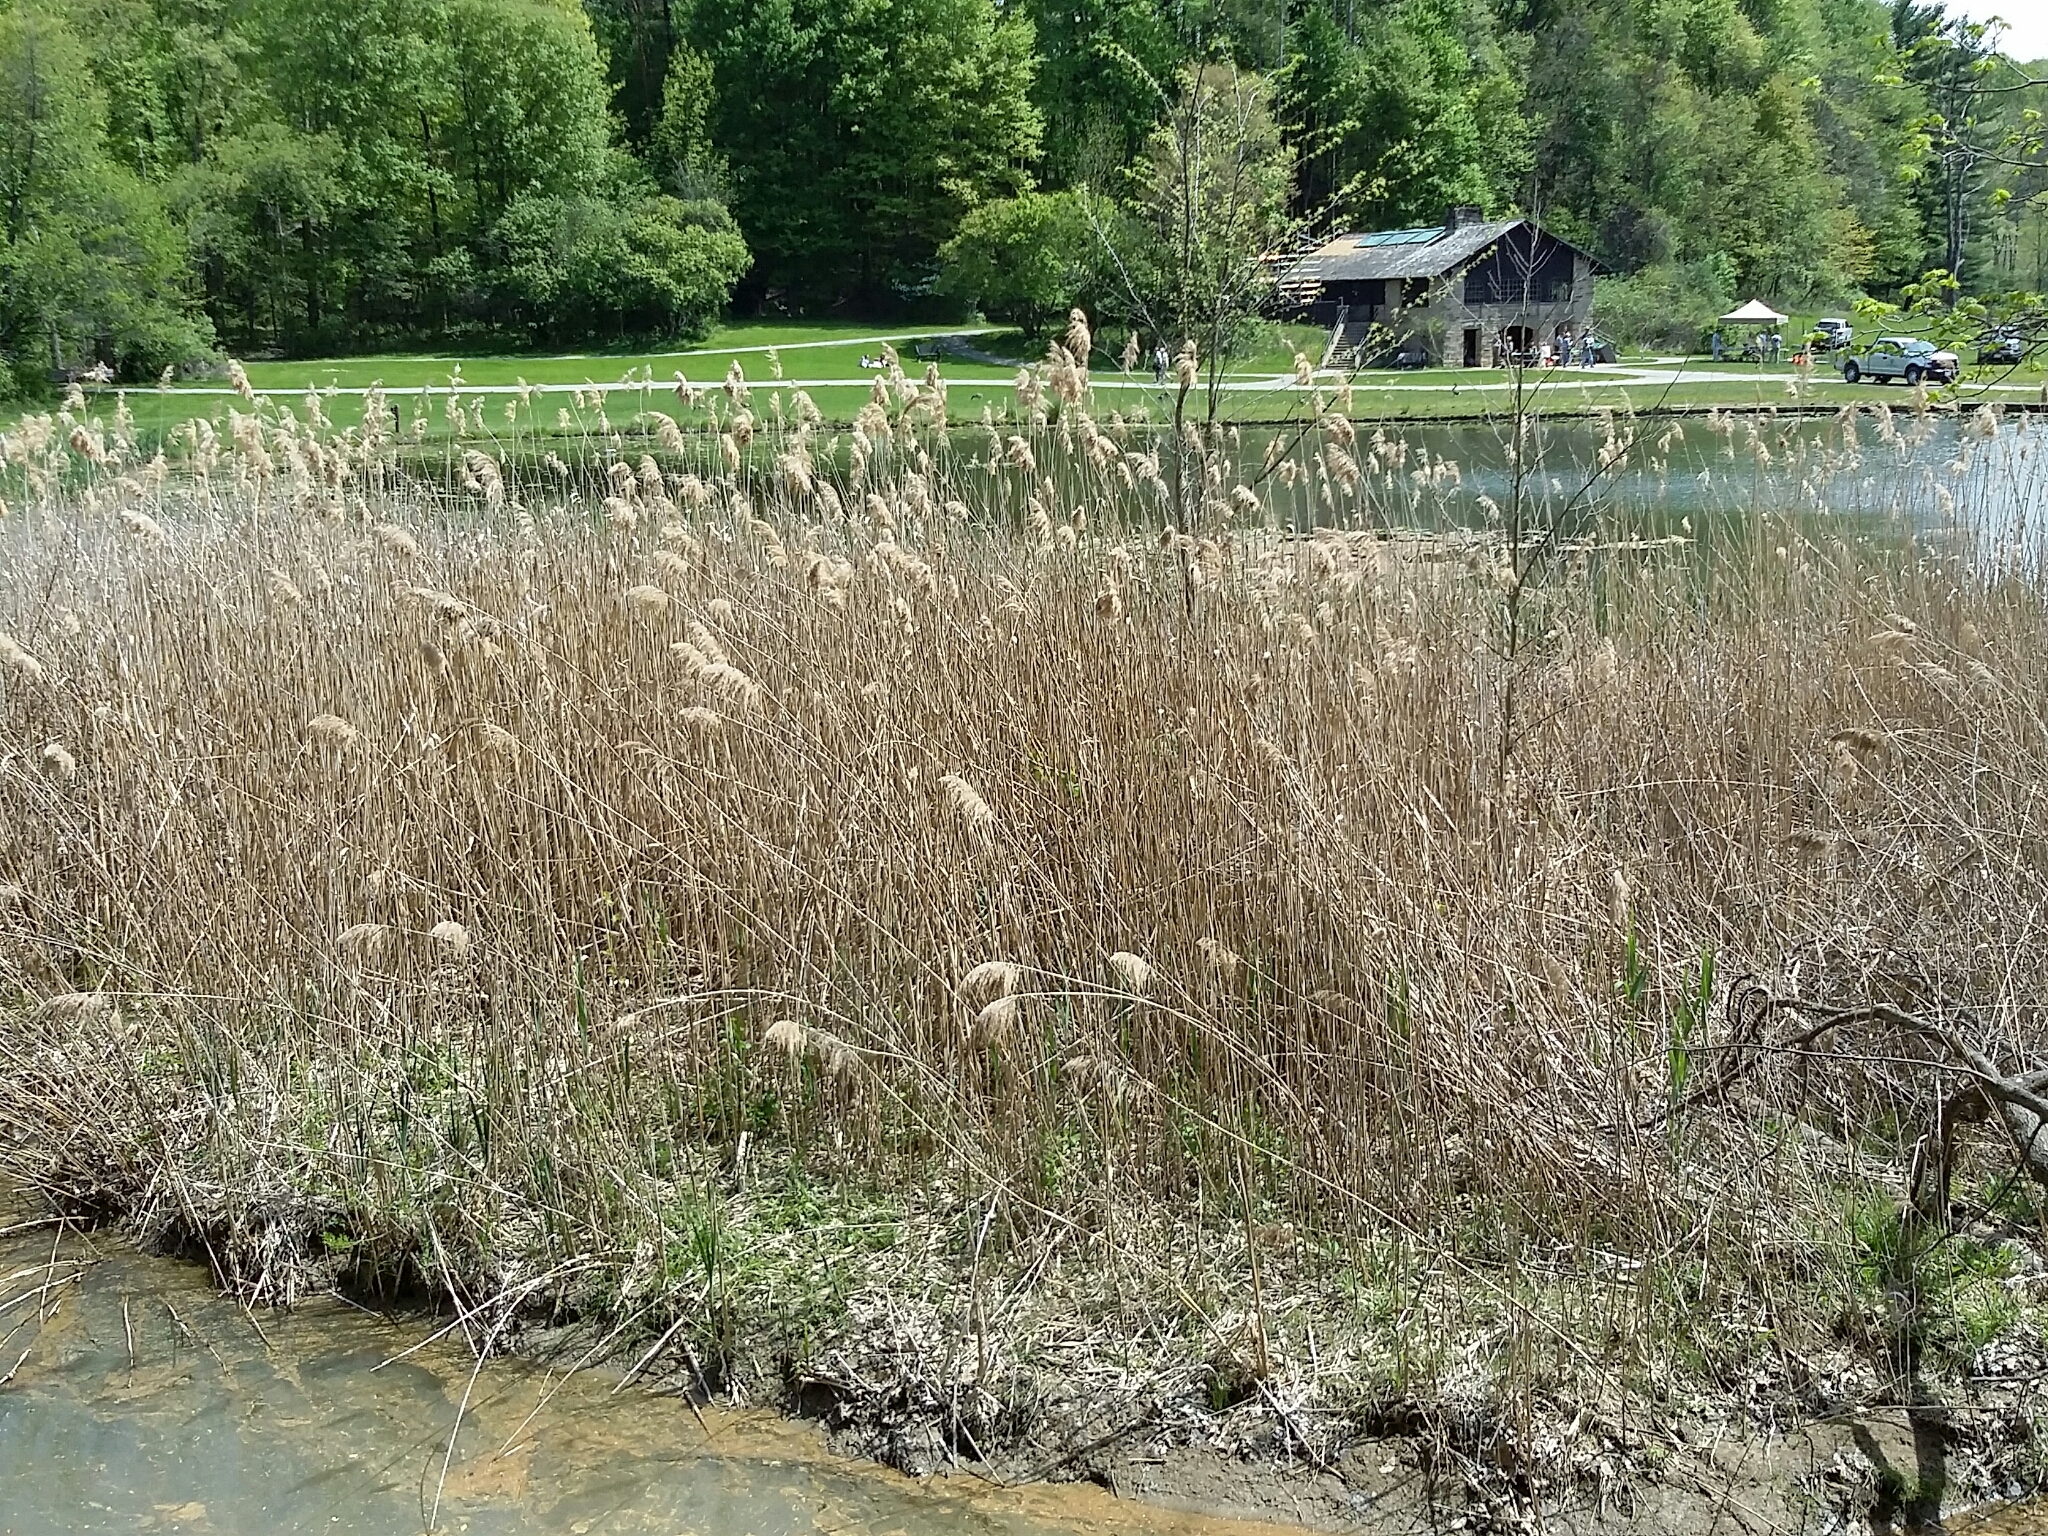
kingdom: Plantae
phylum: Tracheophyta
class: Liliopsida
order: Poales
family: Poaceae
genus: Phragmites
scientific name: Phragmites australis
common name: Common reed
